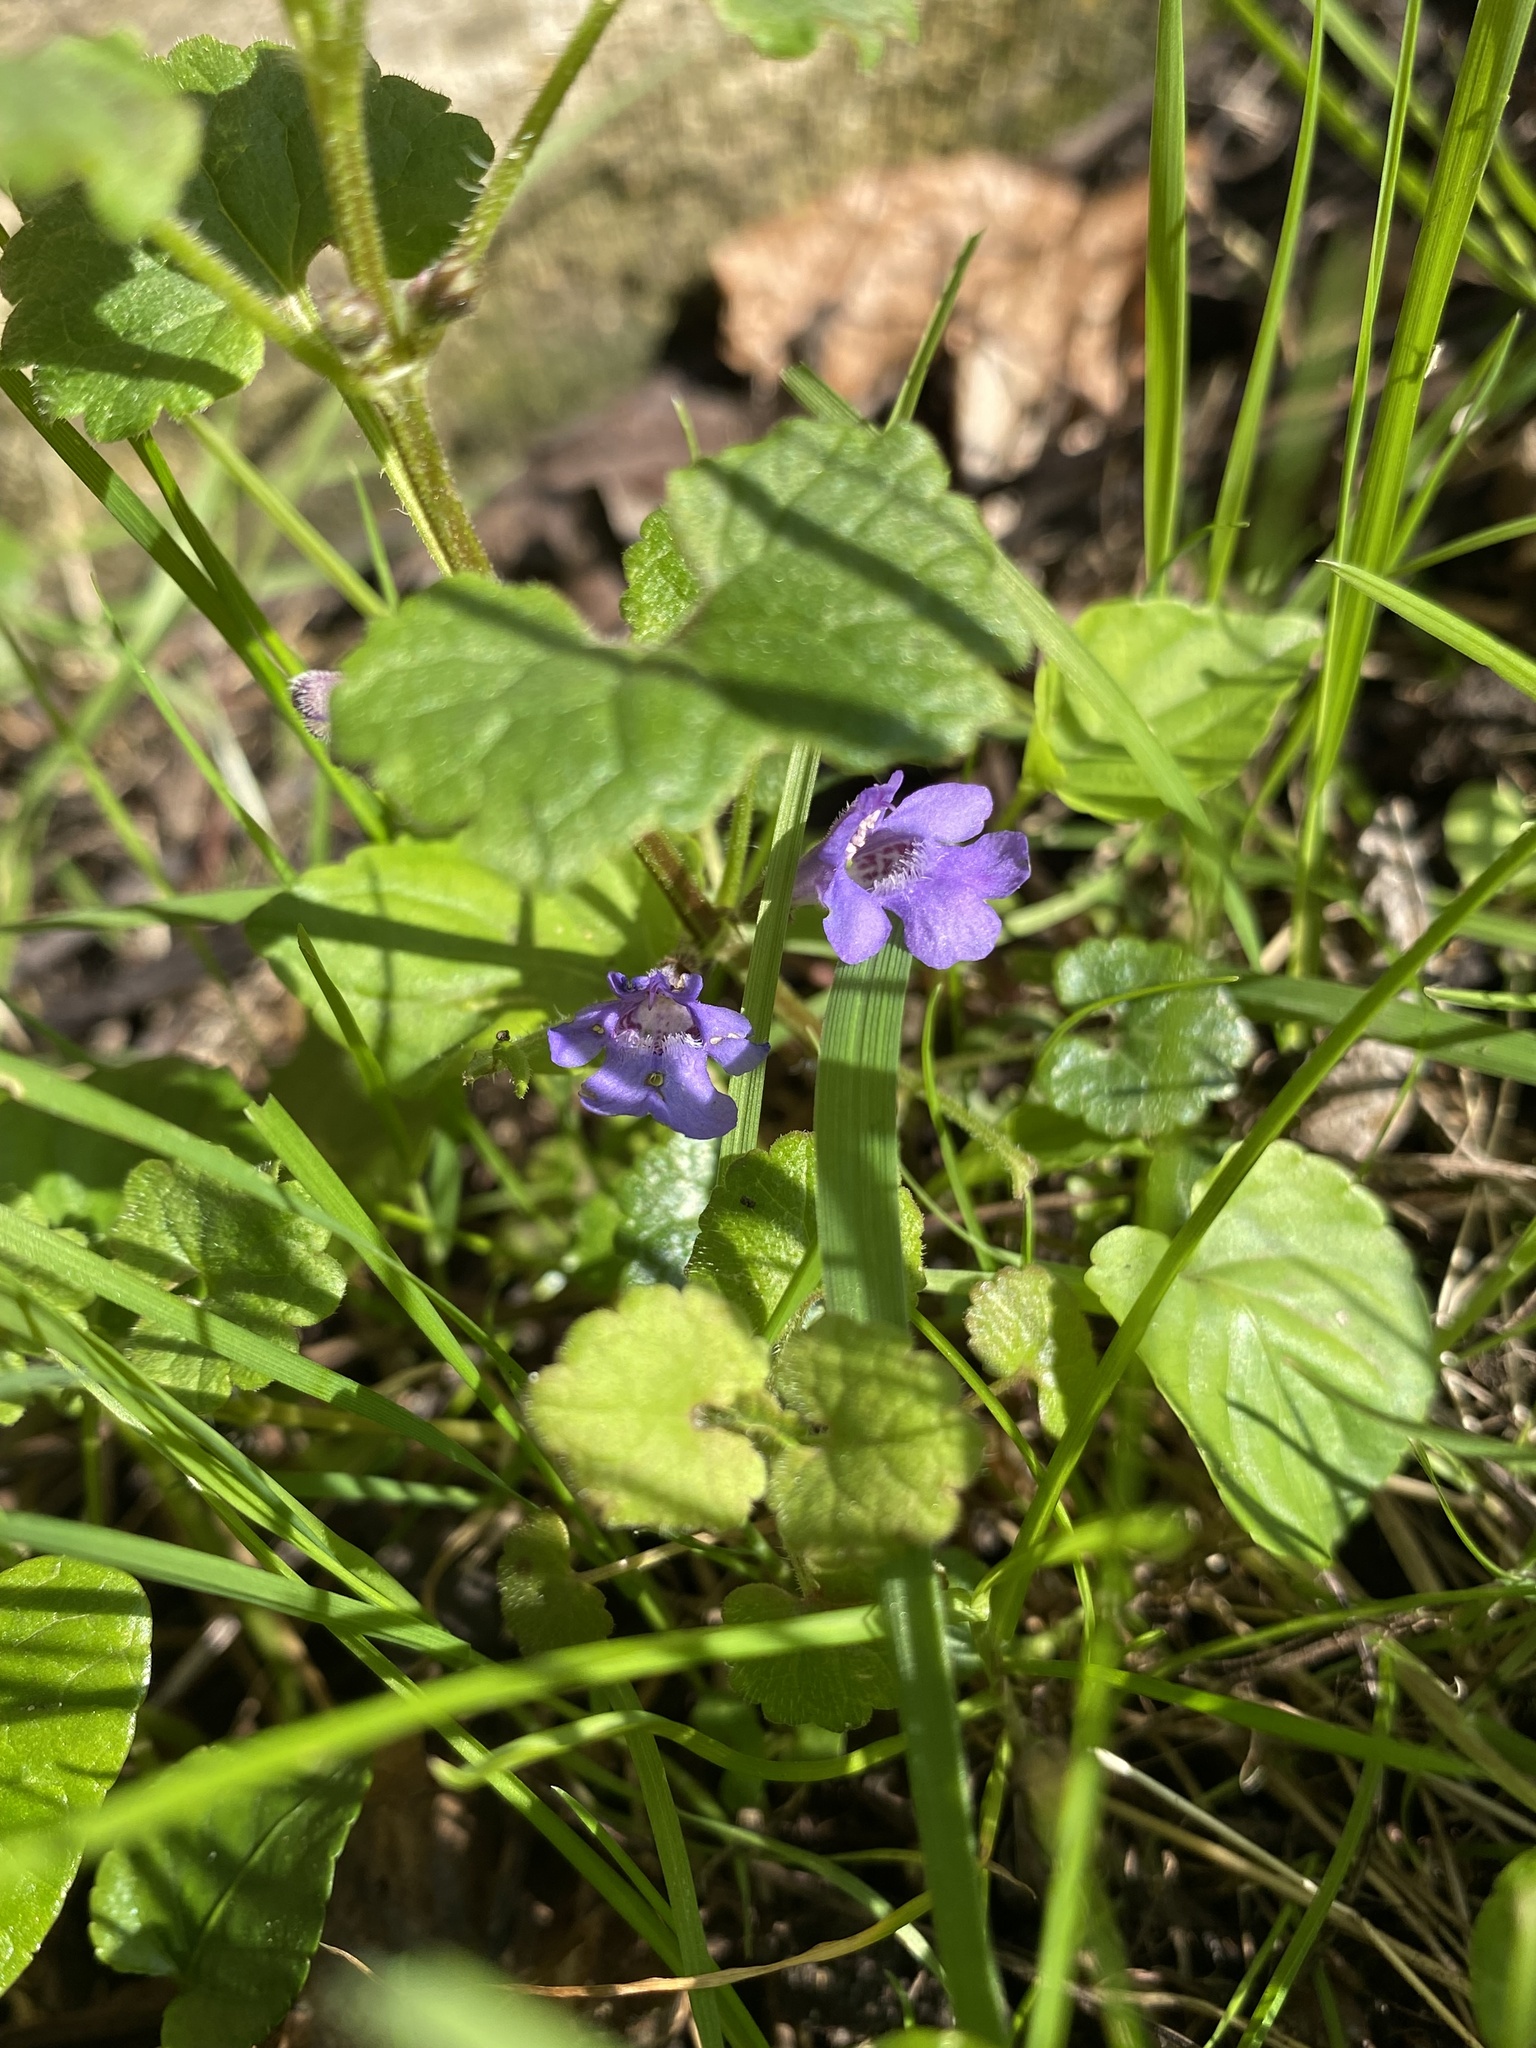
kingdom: Plantae
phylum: Tracheophyta
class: Magnoliopsida
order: Lamiales
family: Lamiaceae
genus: Glechoma
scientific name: Glechoma hederacea
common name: Ground ivy
